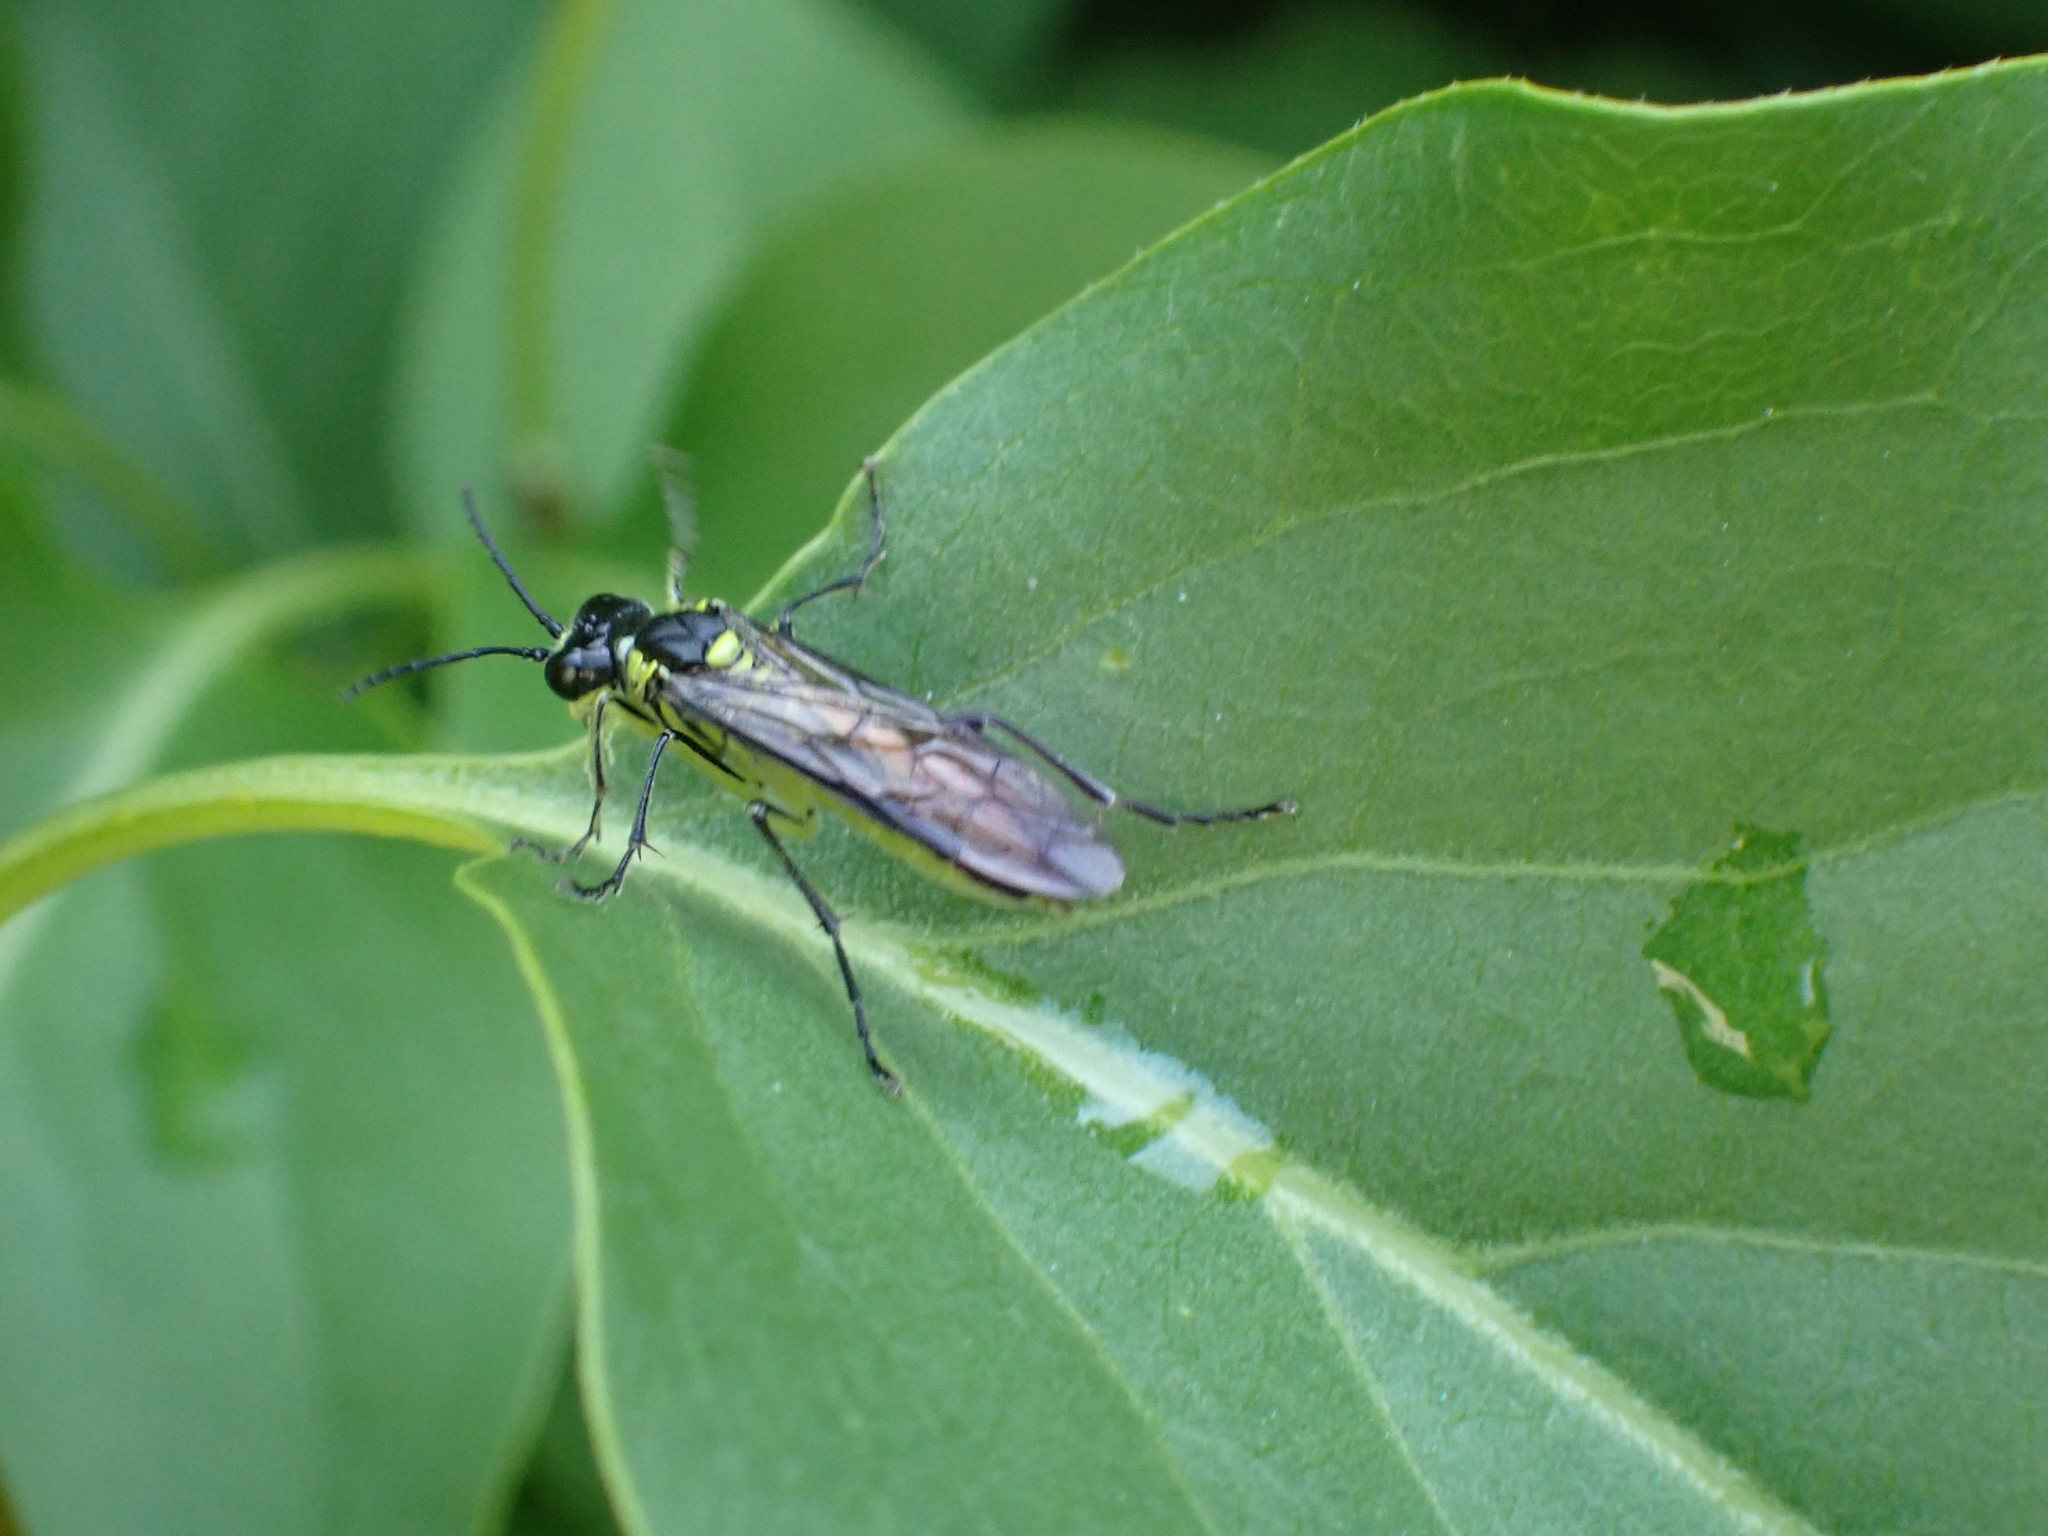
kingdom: Animalia
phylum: Arthropoda
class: Insecta
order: Hymenoptera
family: Tenthredinidae
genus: Tenthredo
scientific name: Tenthredo mesomela
